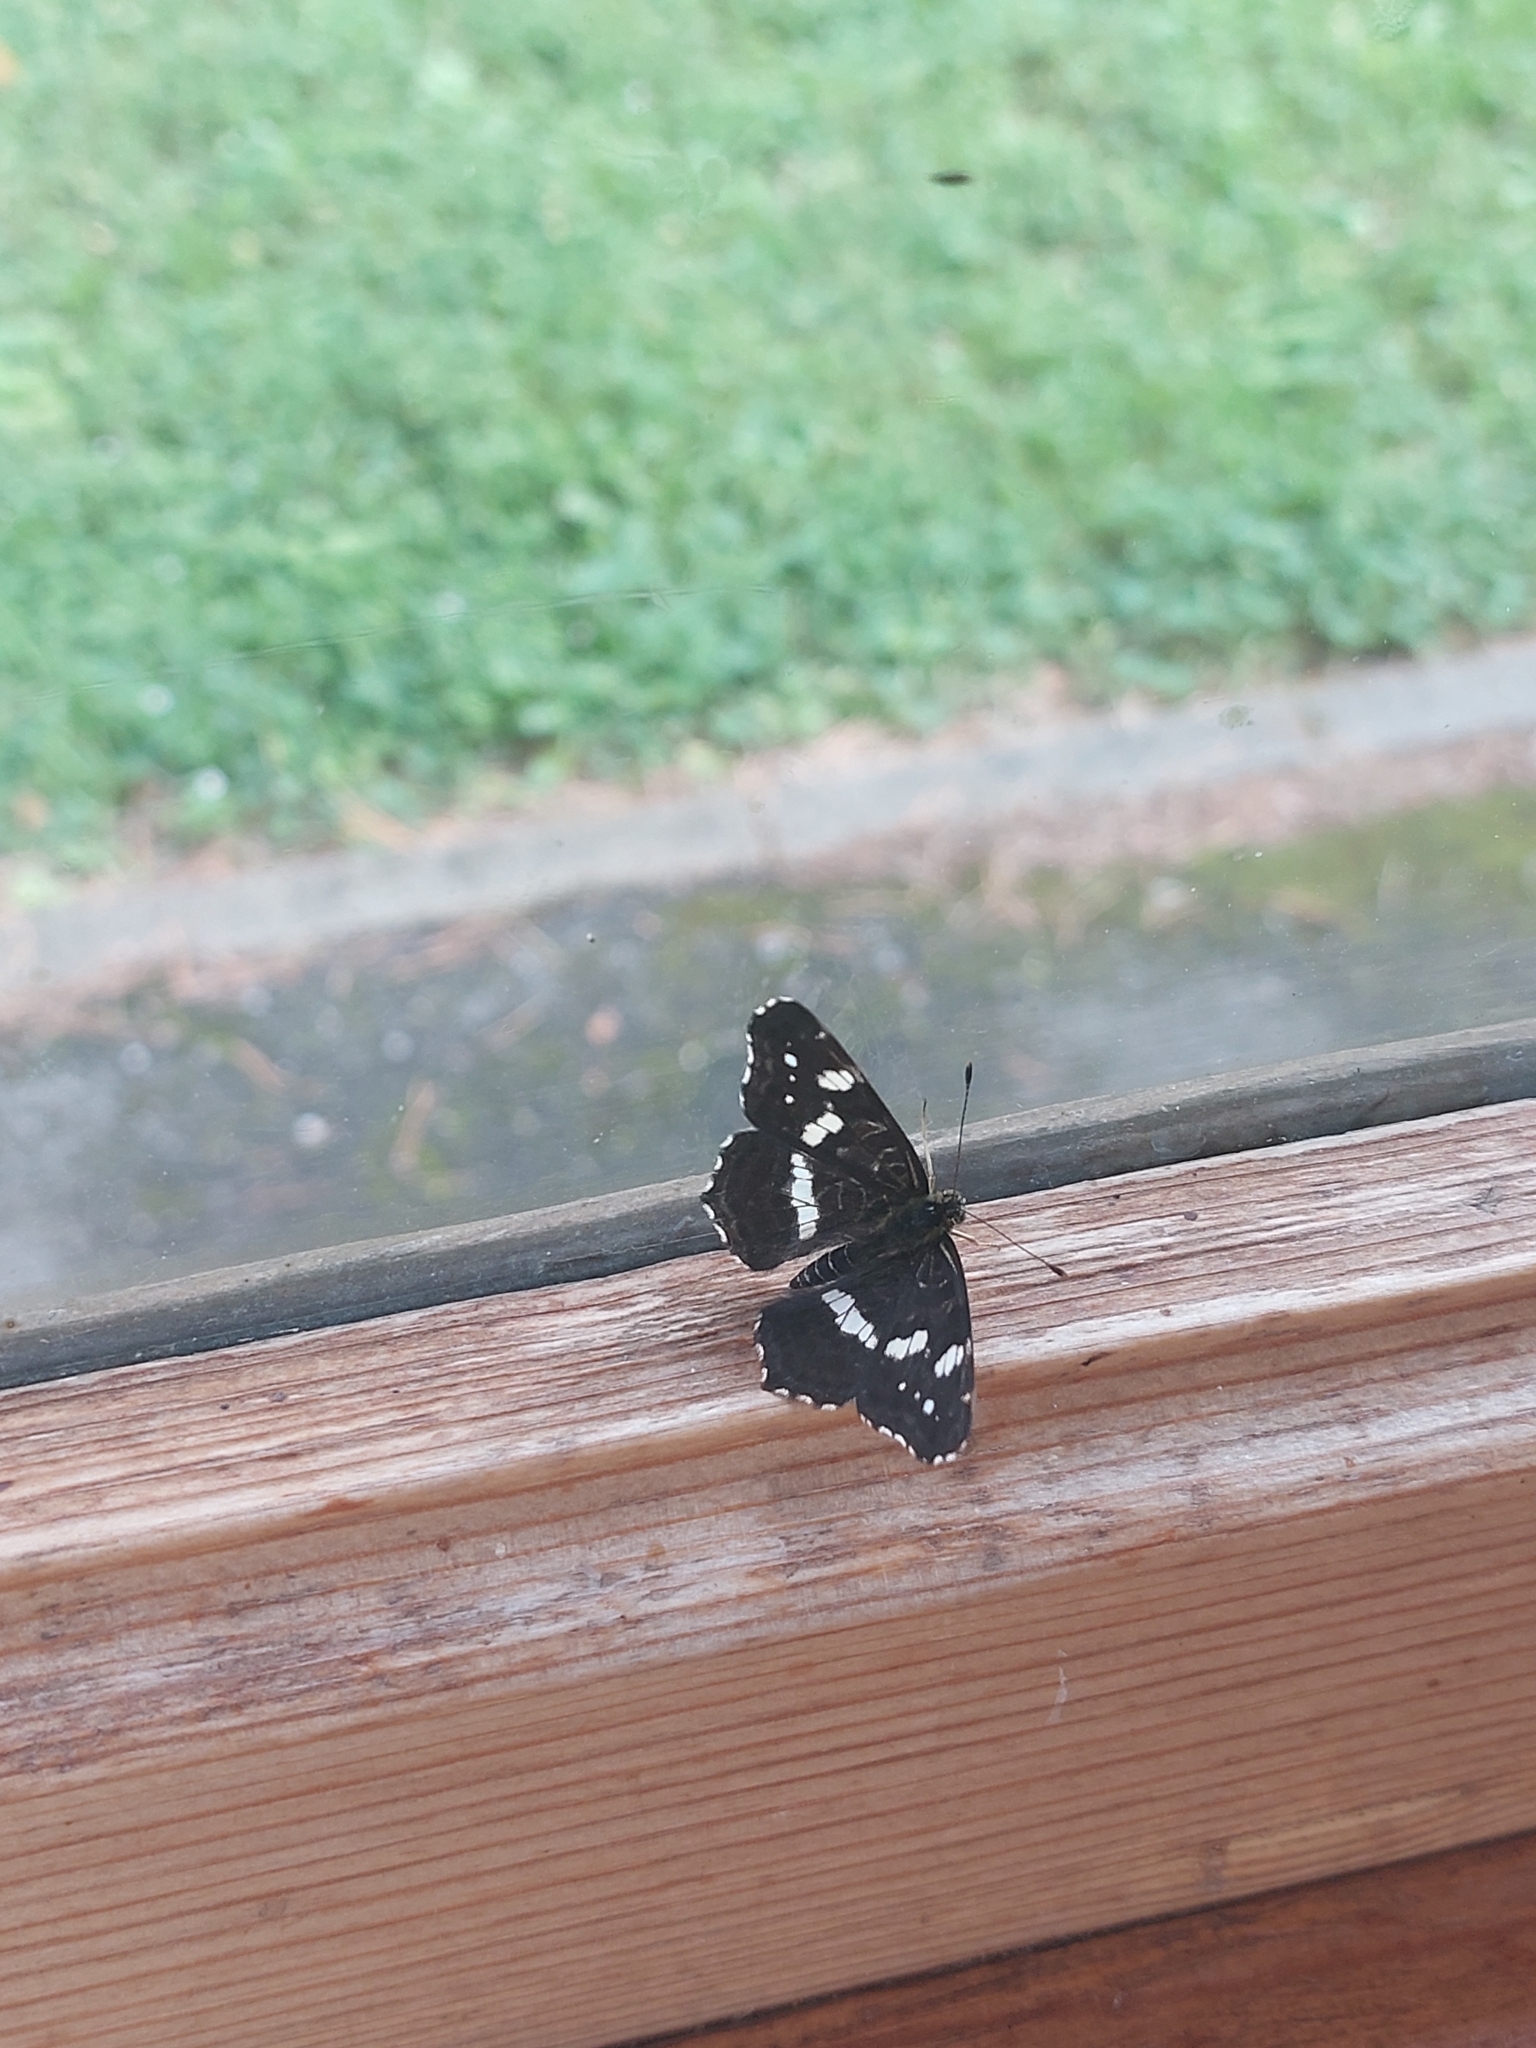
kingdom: Animalia
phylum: Arthropoda
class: Insecta
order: Lepidoptera
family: Nymphalidae
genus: Araschnia
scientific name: Araschnia levana
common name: Map butterfly
